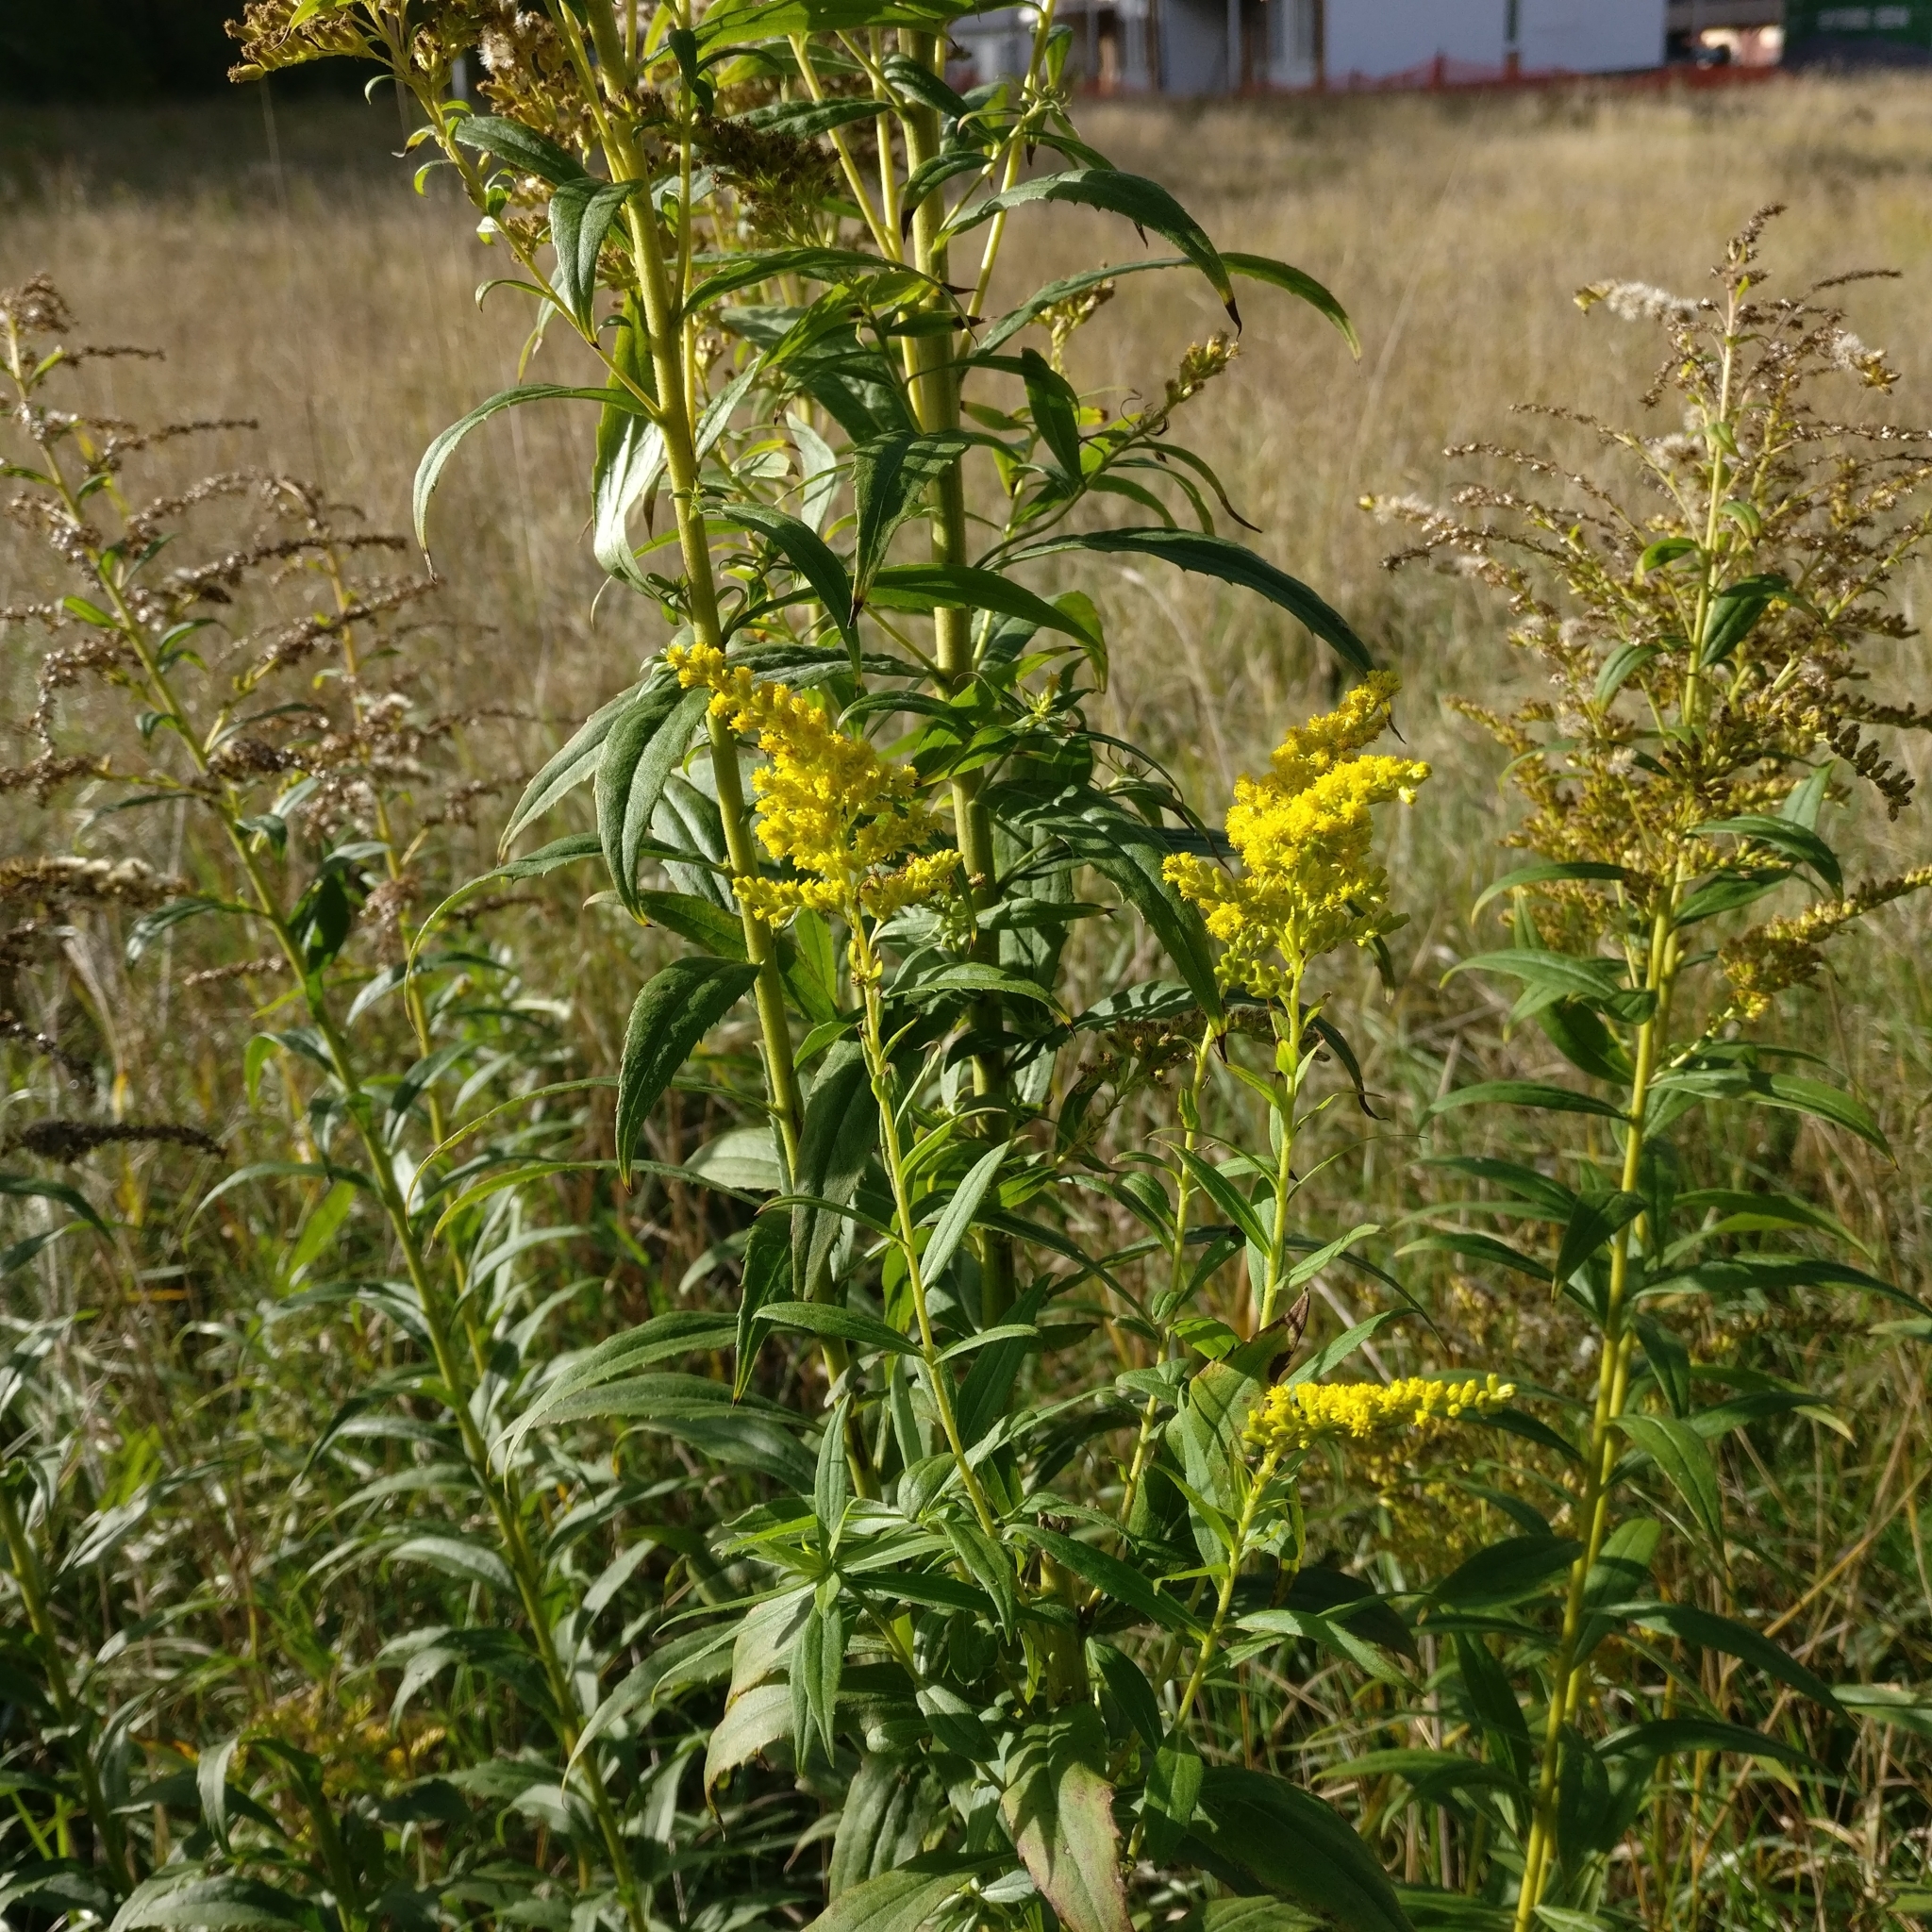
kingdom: Plantae
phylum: Tracheophyta
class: Magnoliopsida
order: Asterales
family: Asteraceae
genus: Solidago
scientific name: Solidago canadensis
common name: Canada goldenrod
